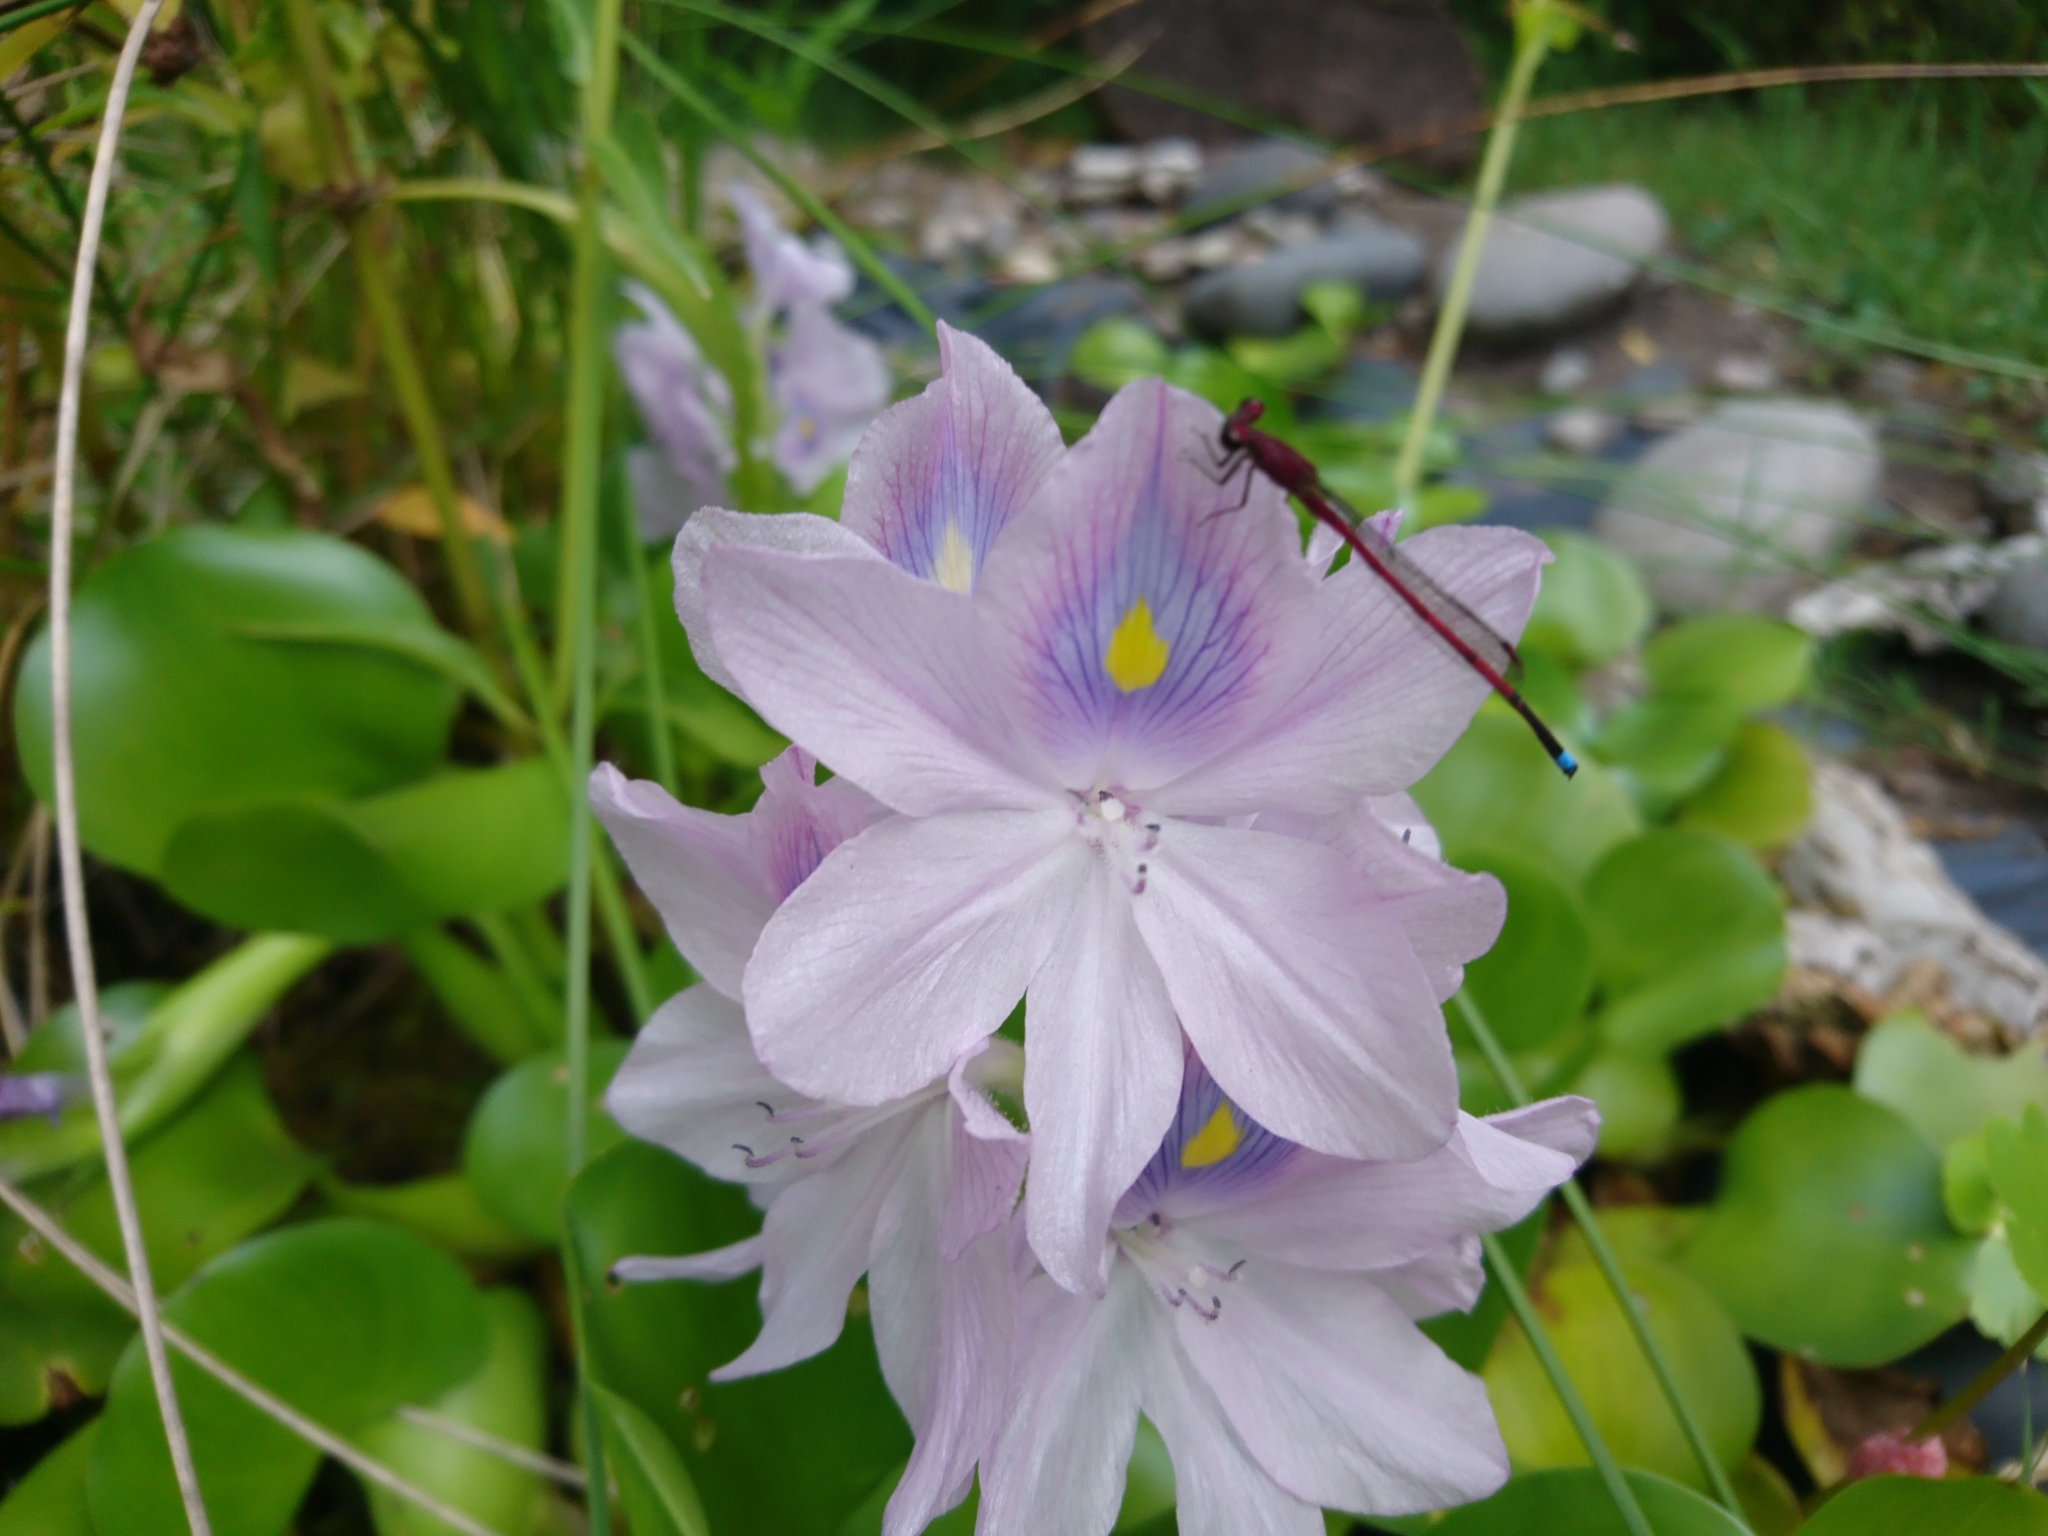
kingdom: Animalia
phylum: Arthropoda
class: Insecta
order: Odonata
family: Coenagrionidae
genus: Oxyagrion
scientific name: Oxyagrion terminale
